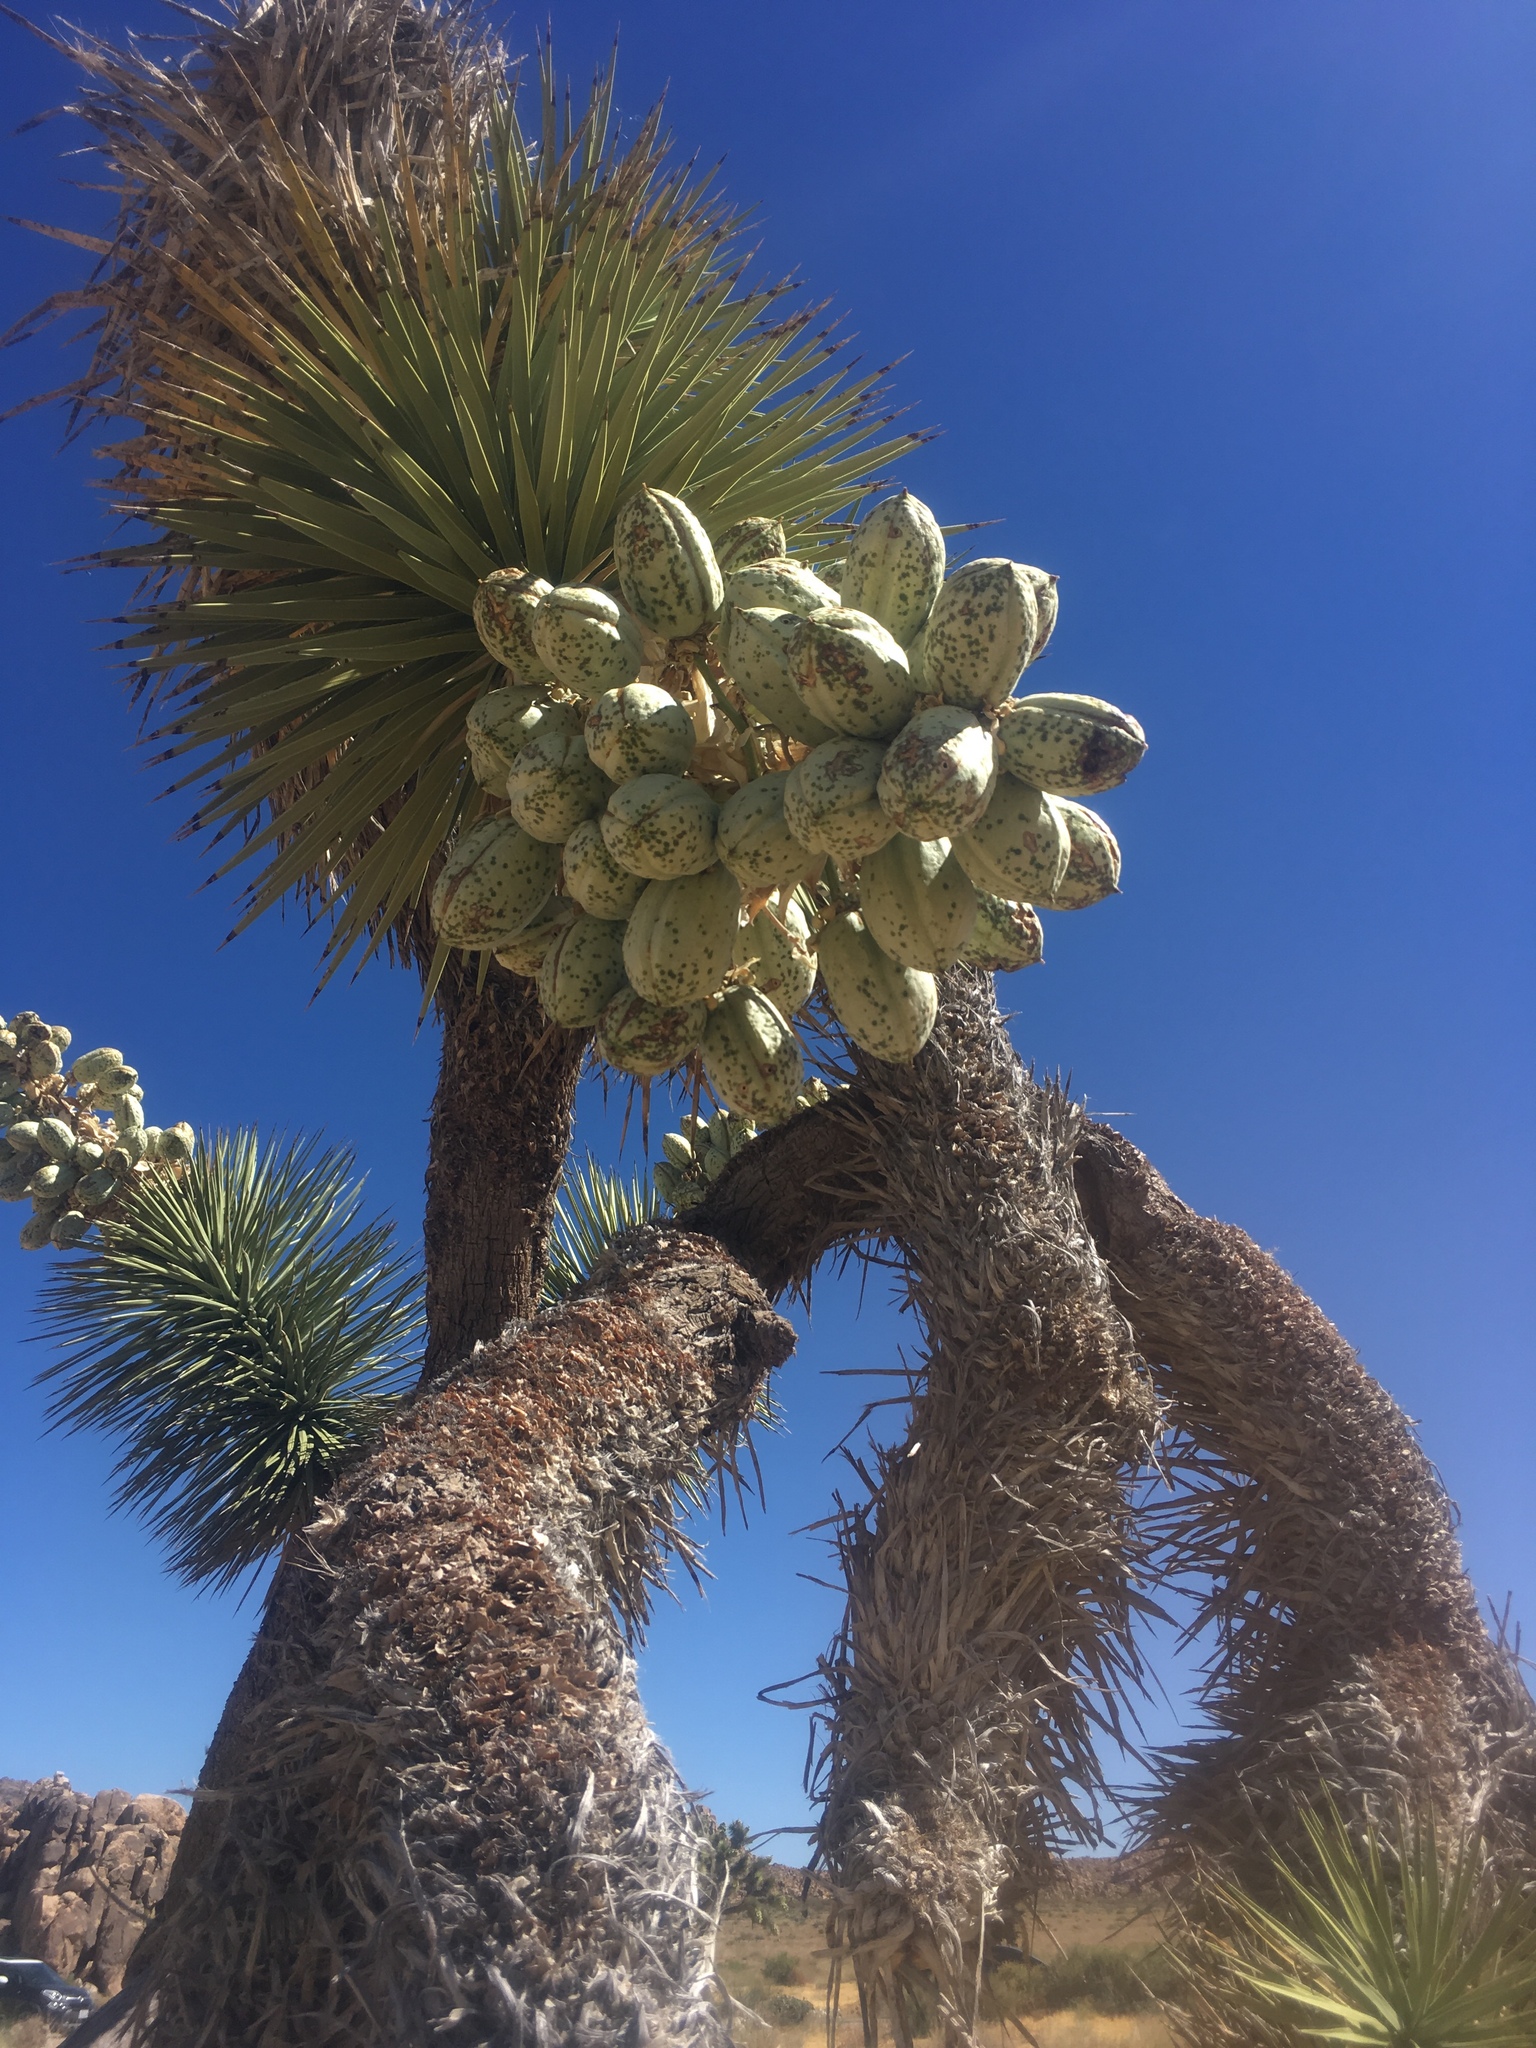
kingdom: Plantae
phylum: Tracheophyta
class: Liliopsida
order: Asparagales
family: Asparagaceae
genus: Yucca
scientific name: Yucca brevifolia
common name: Joshua tree
